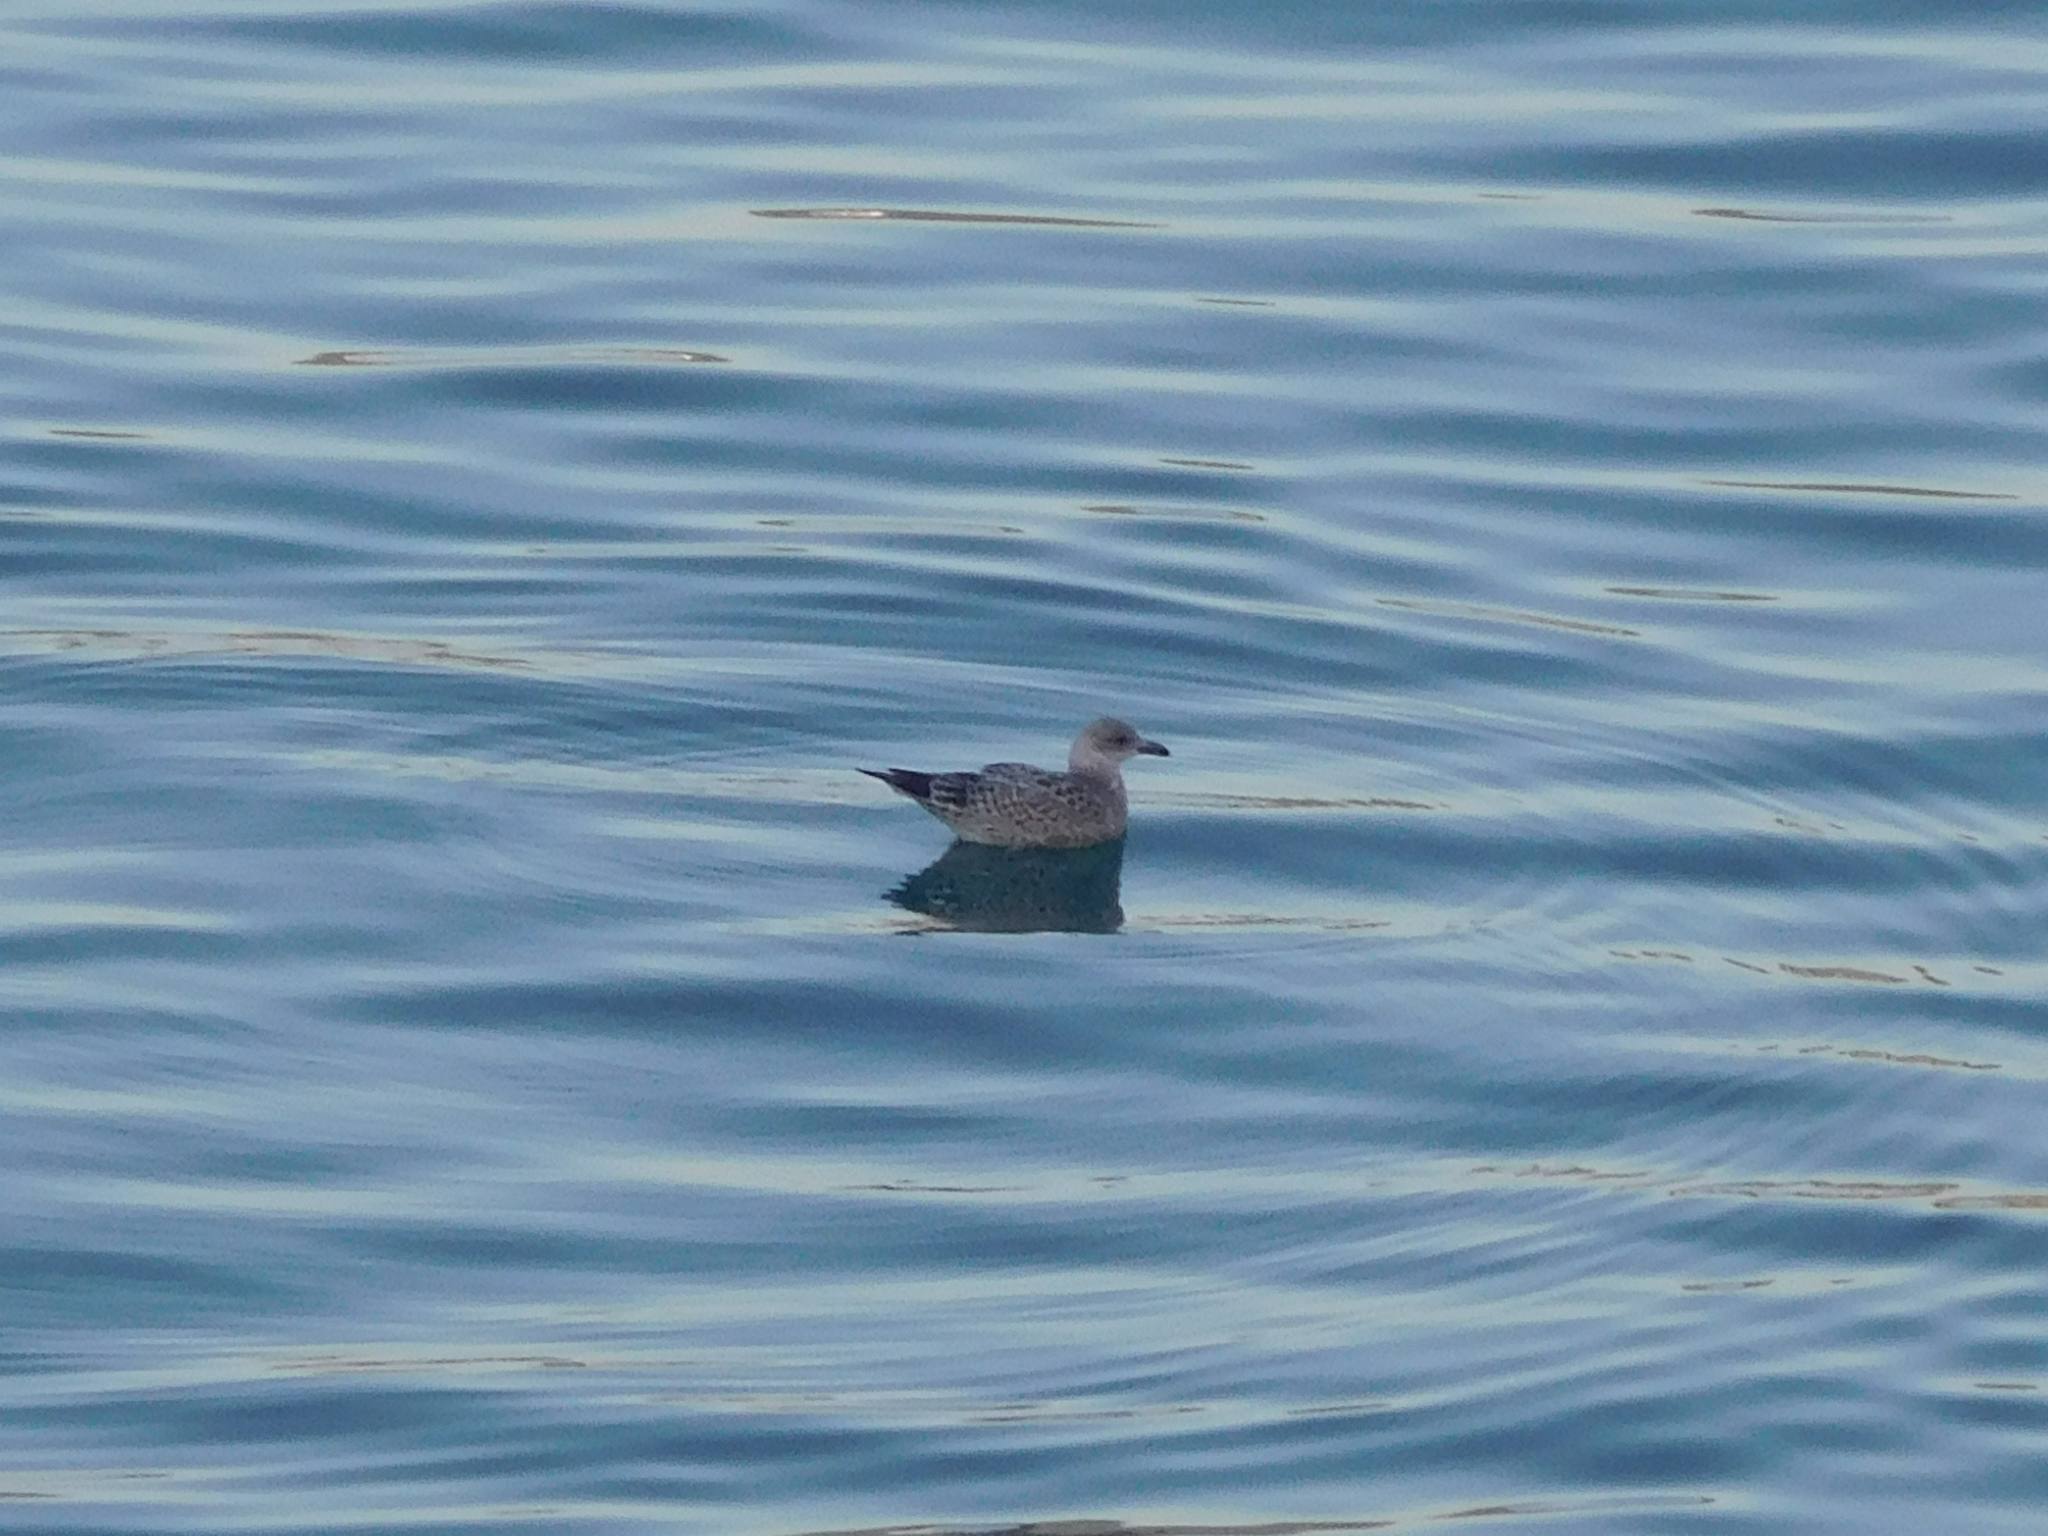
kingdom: Animalia
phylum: Chordata
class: Aves
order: Charadriiformes
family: Laridae
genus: Larus
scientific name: Larus argentatus
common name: Herring gull
